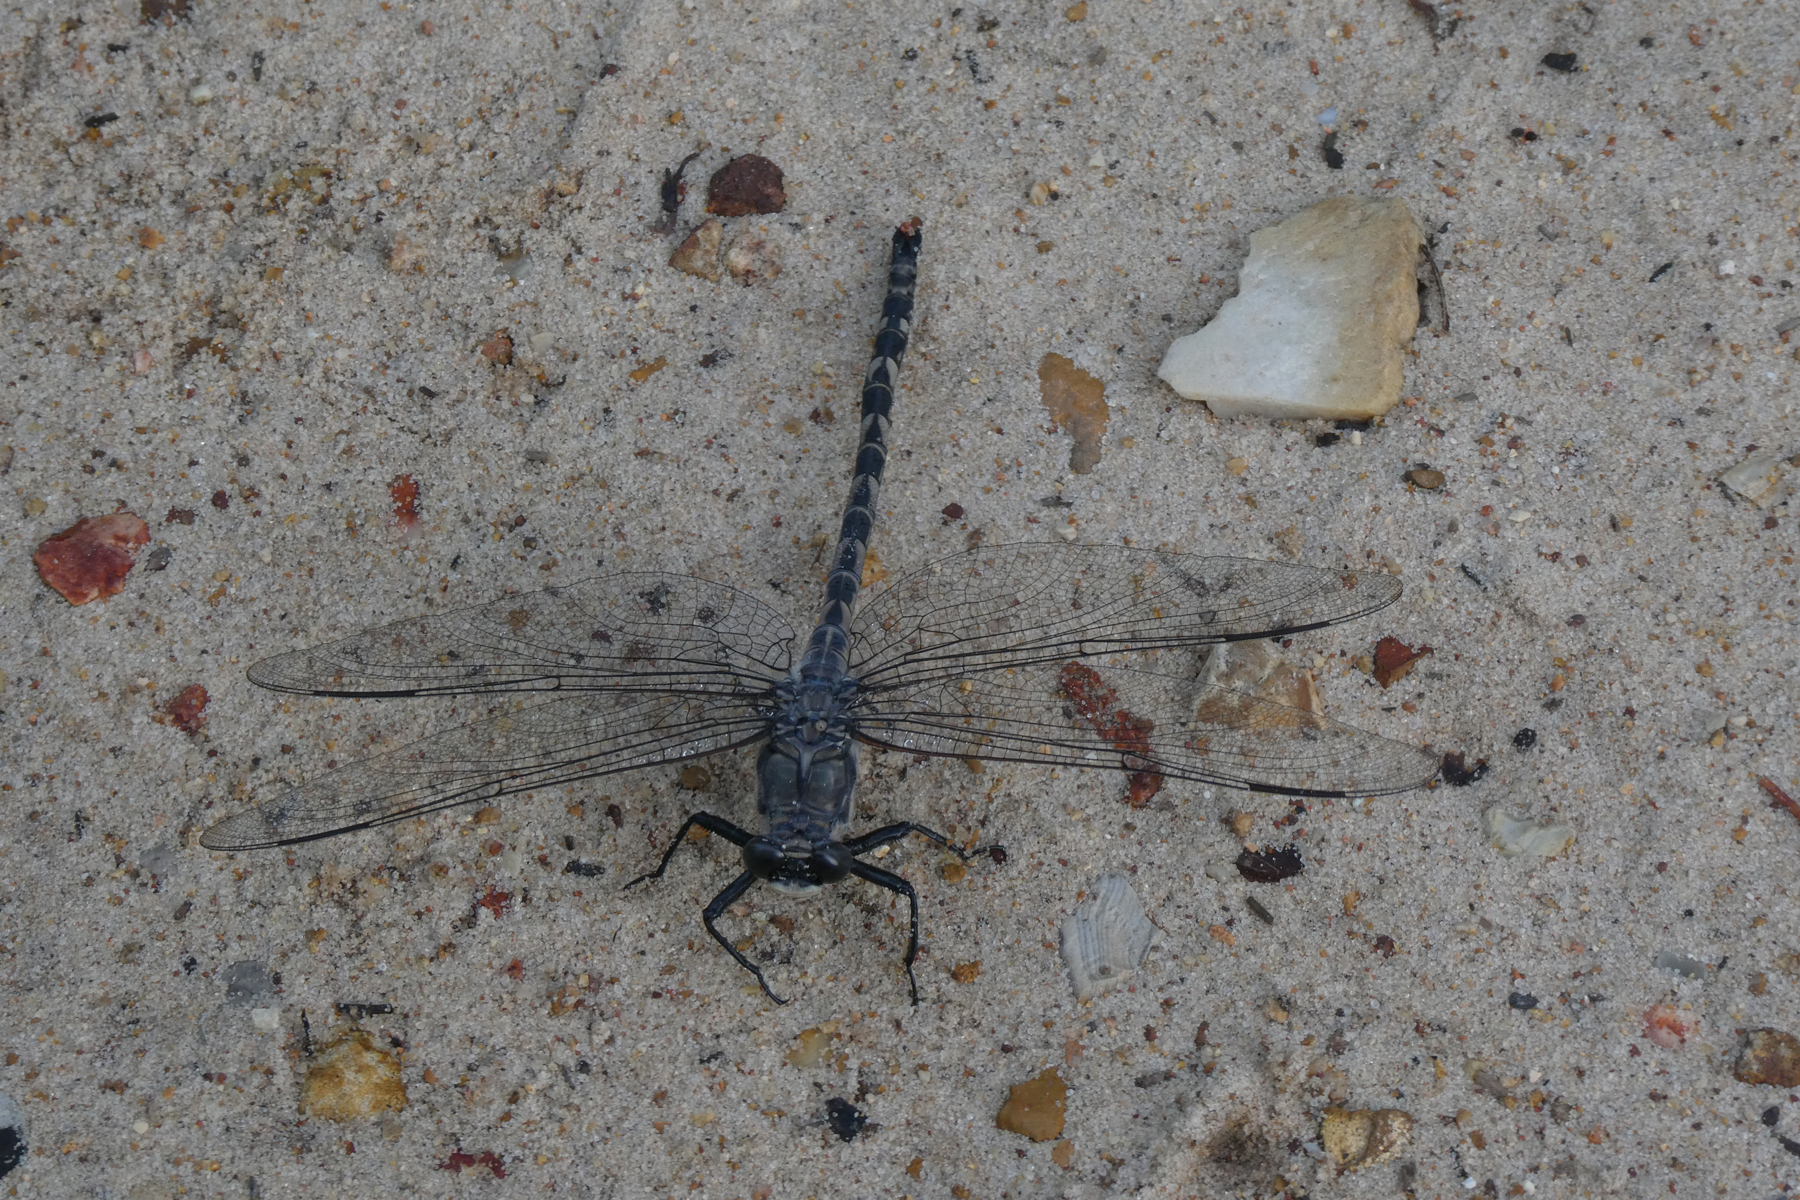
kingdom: Animalia
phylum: Arthropoda
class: Insecta
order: Odonata
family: Petaluridae
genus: Tachopteryx
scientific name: Tachopteryx thoreyi
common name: Gray petaltail
